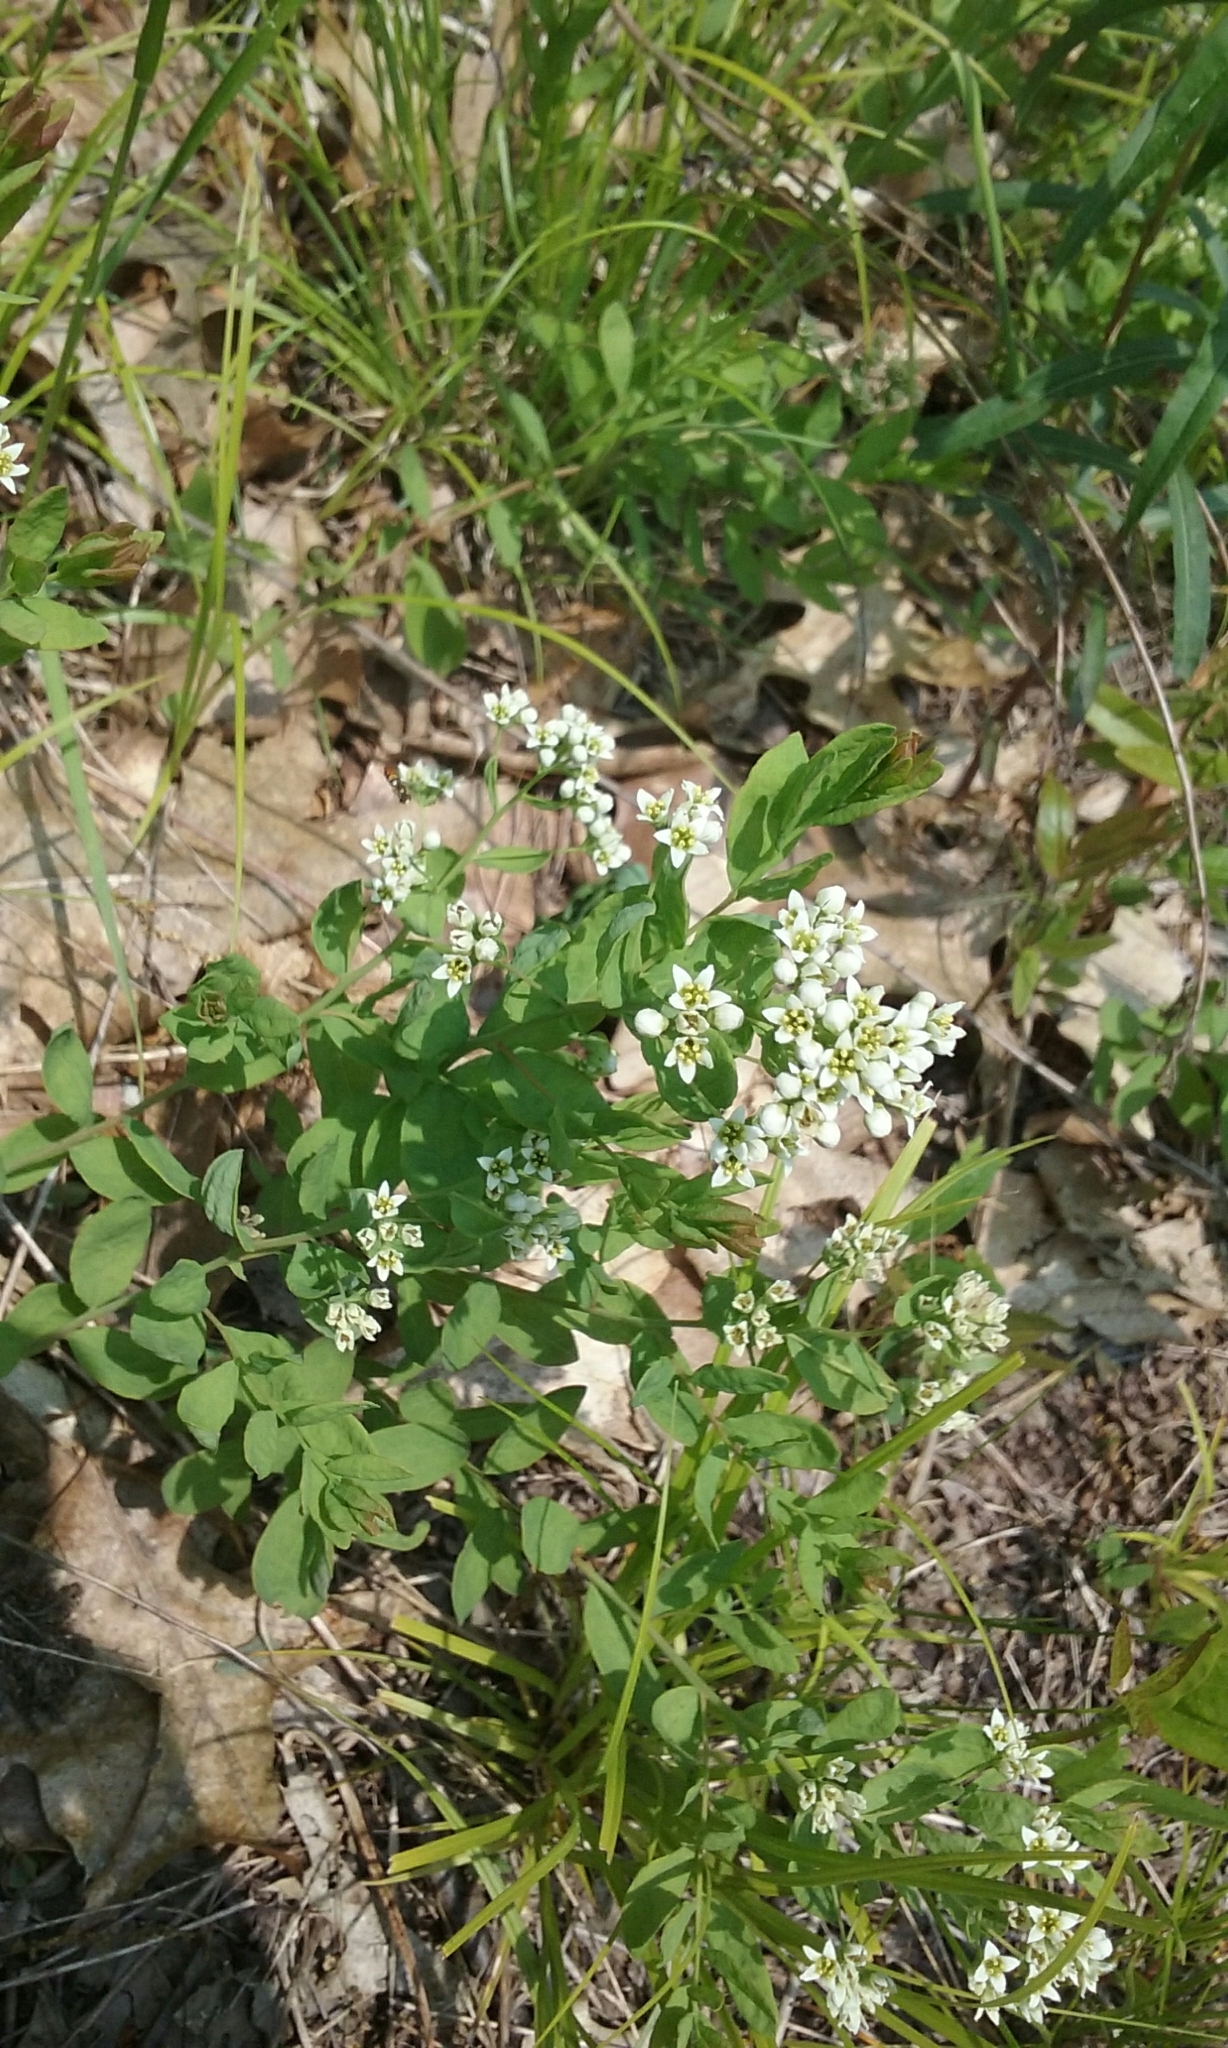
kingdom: Plantae
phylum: Tracheophyta
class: Magnoliopsida
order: Santalales
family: Comandraceae
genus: Comandra
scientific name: Comandra umbellata
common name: Bastard toadflax
